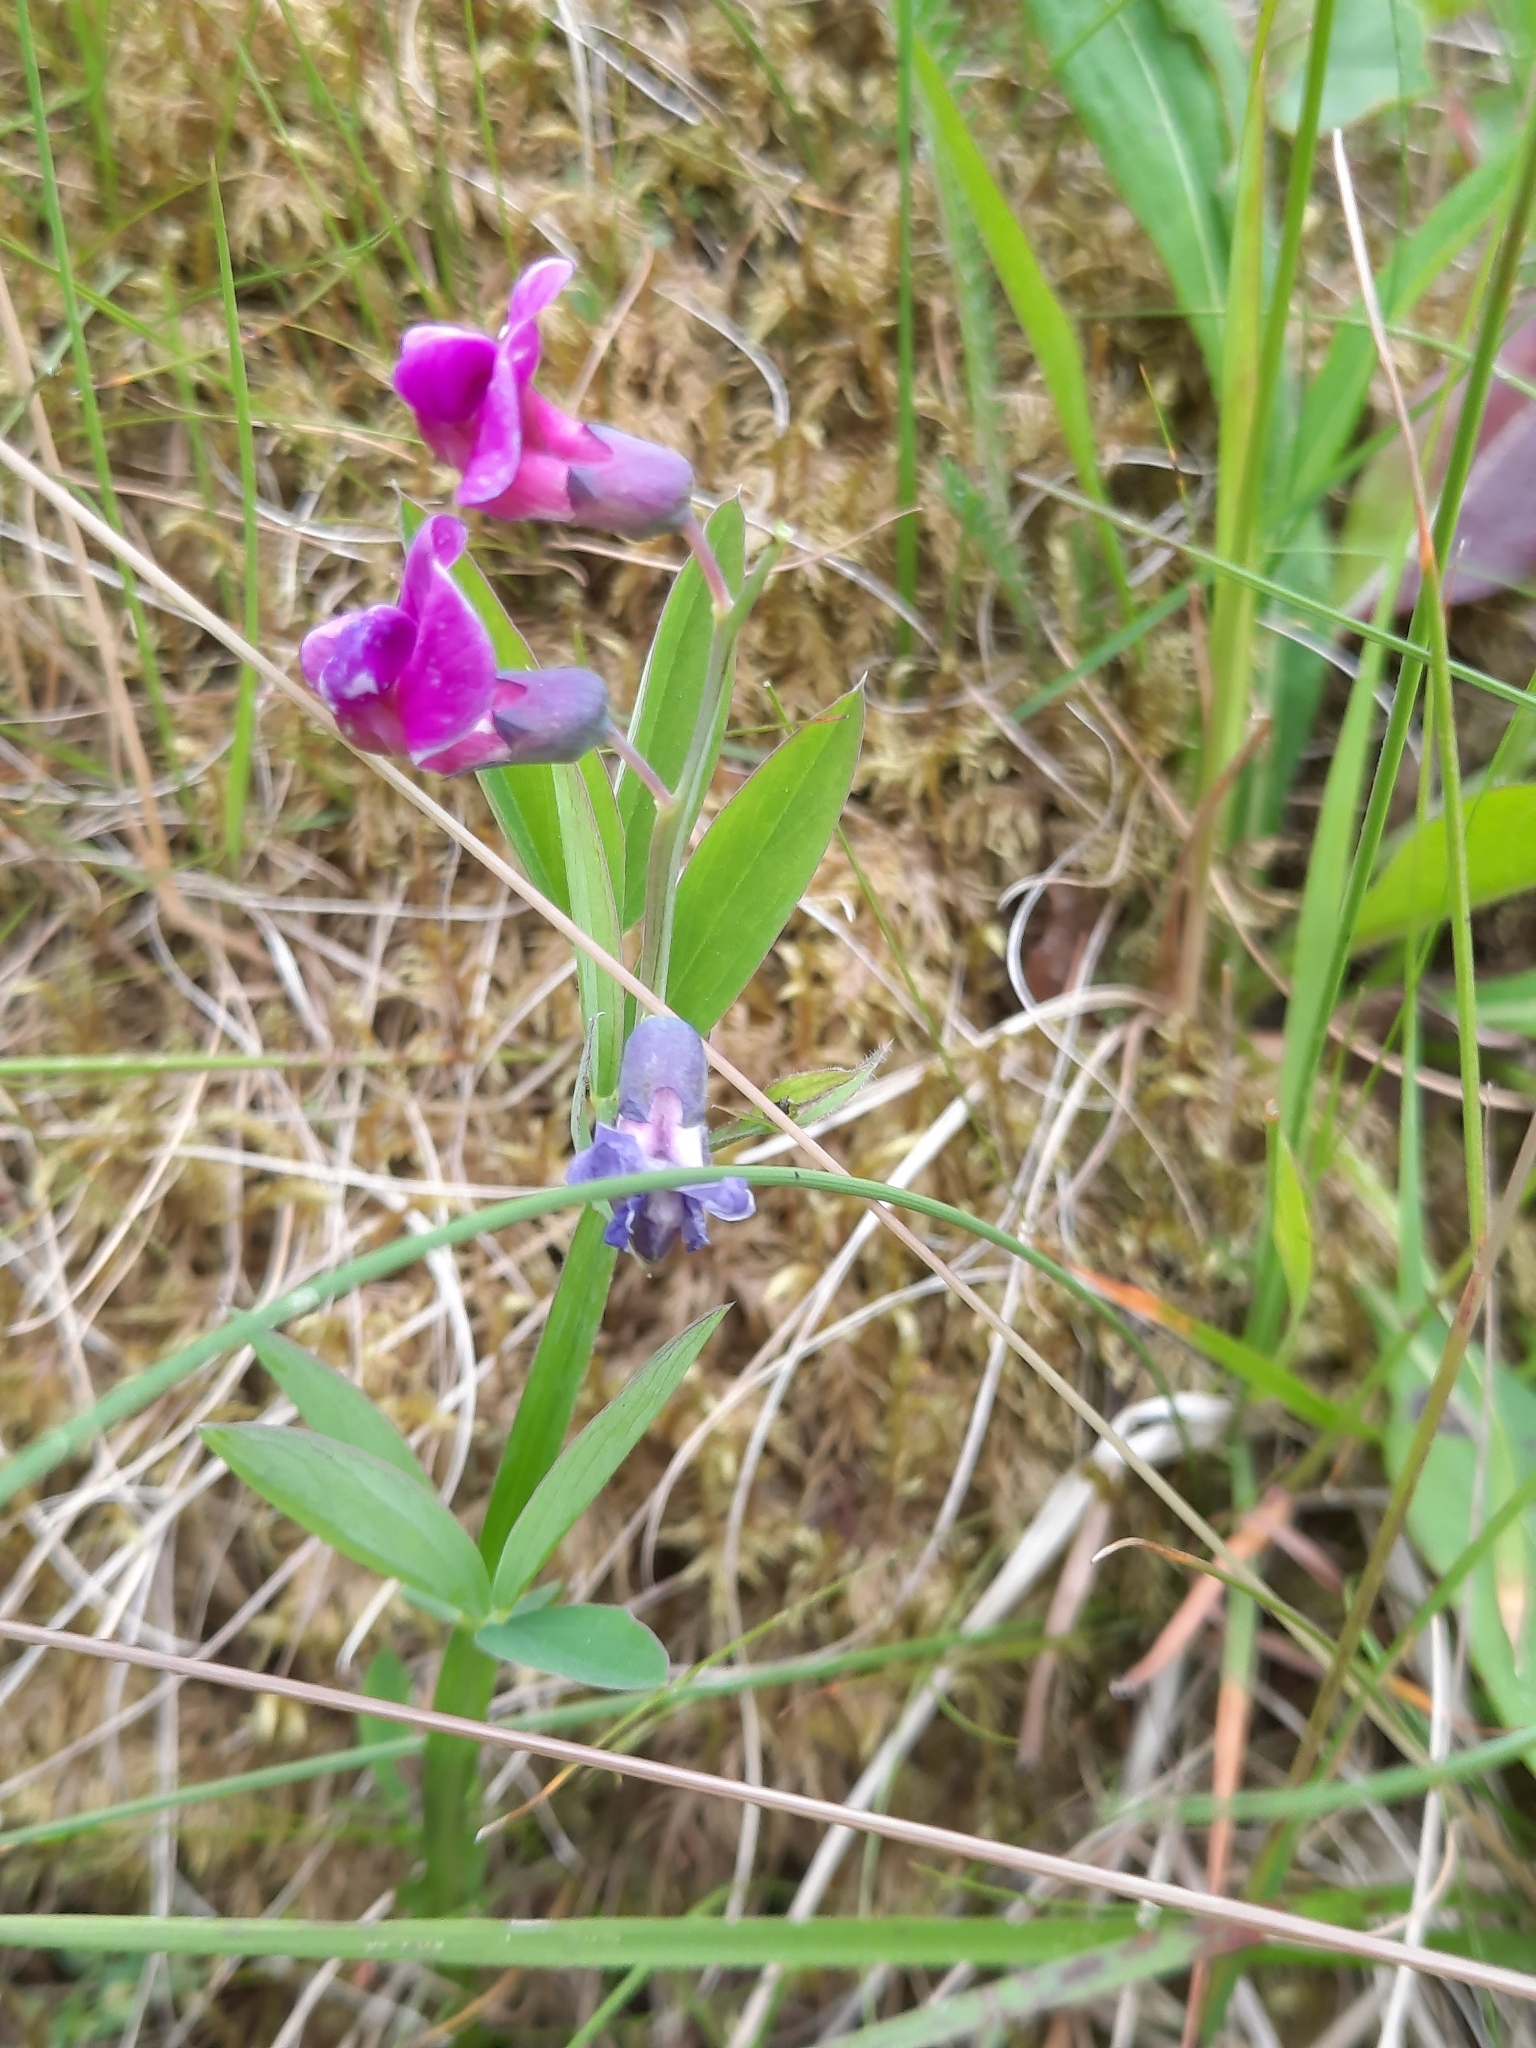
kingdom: Plantae
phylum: Tracheophyta
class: Magnoliopsida
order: Fabales
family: Fabaceae
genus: Lathyrus
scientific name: Lathyrus linifolius
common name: Bitter-vetch
